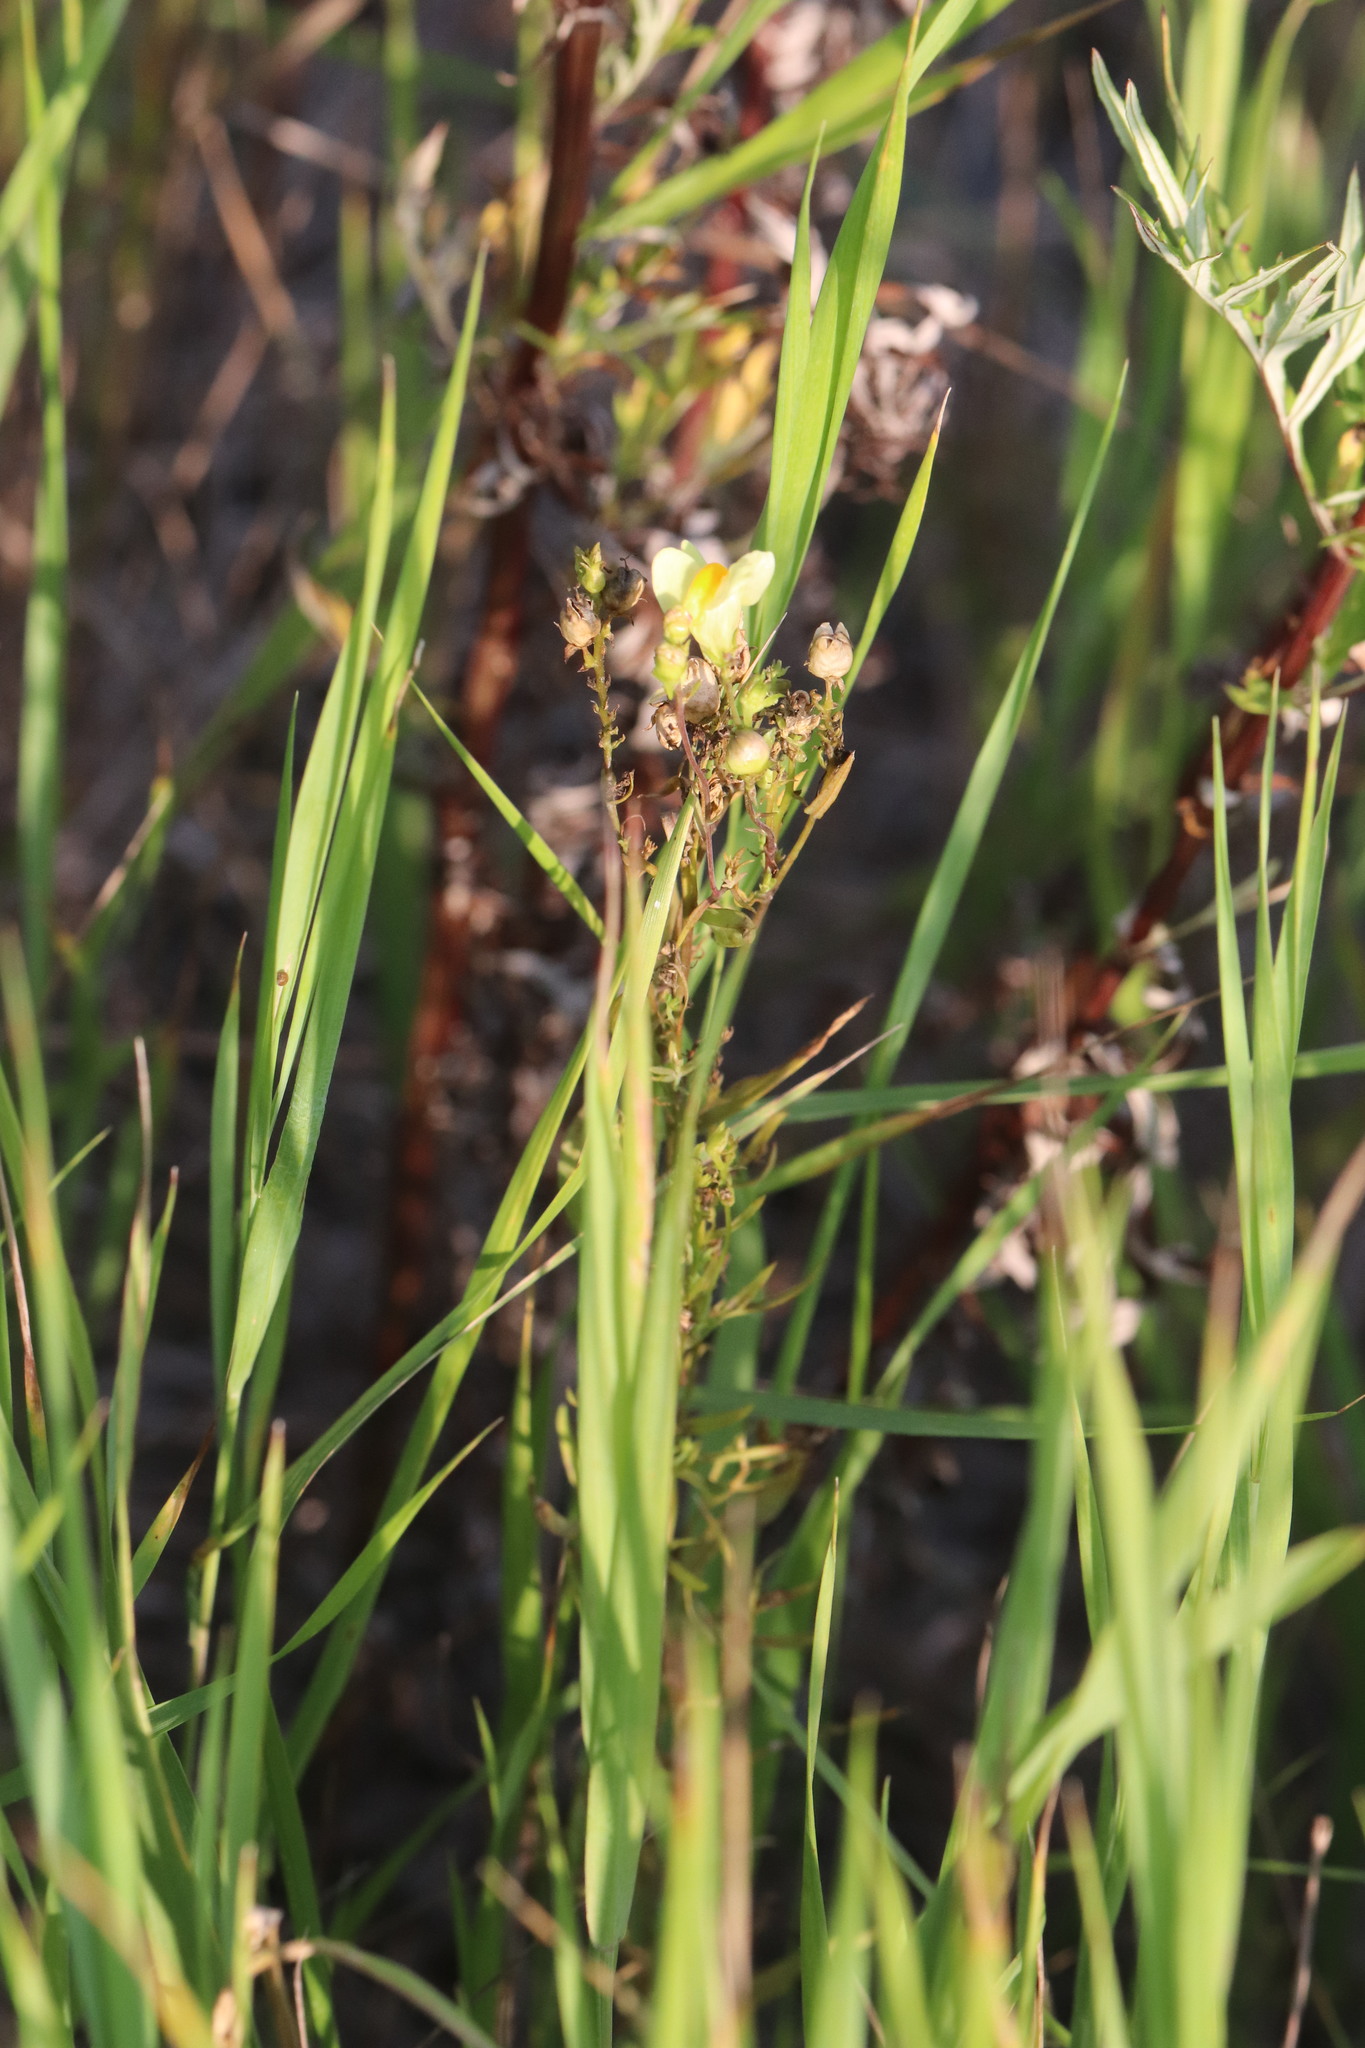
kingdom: Plantae
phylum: Tracheophyta
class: Magnoliopsida
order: Lamiales
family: Plantaginaceae
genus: Linaria
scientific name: Linaria vulgaris
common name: Butter and eggs
